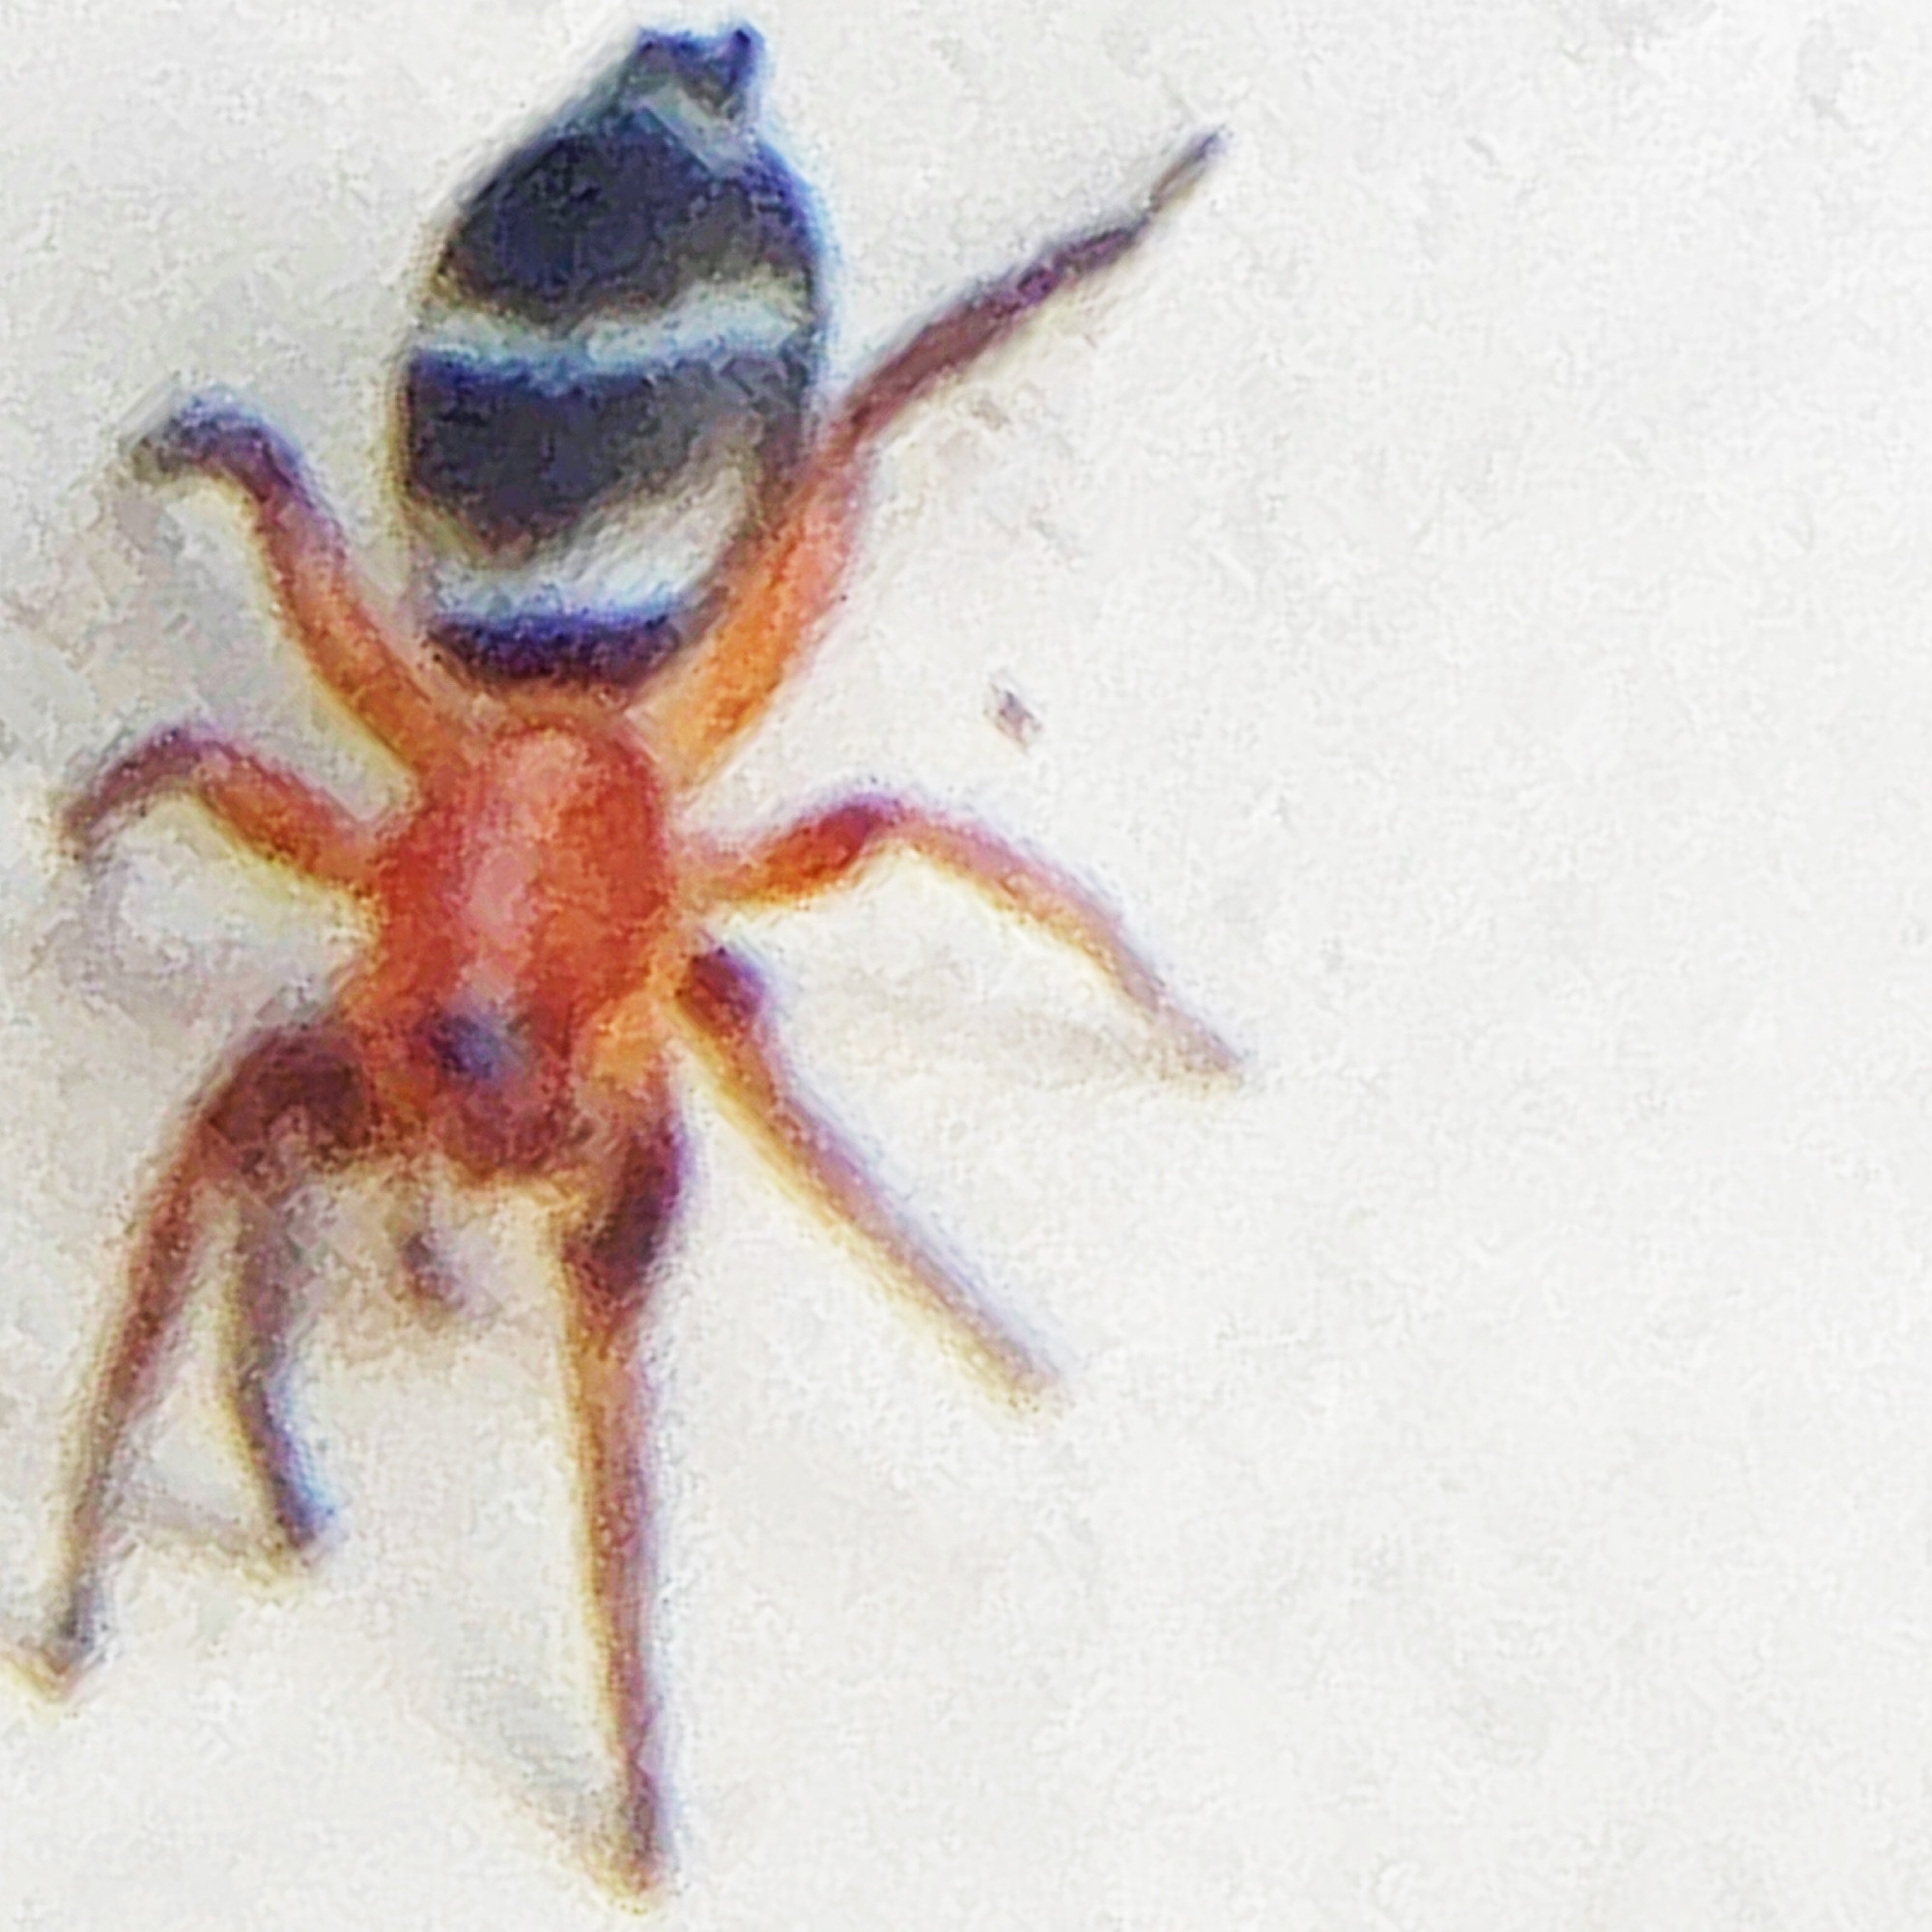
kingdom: Animalia
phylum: Arthropoda
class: Arachnida
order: Araneae
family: Gnaphosidae
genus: Sergiolus
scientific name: Sergiolus minutus
